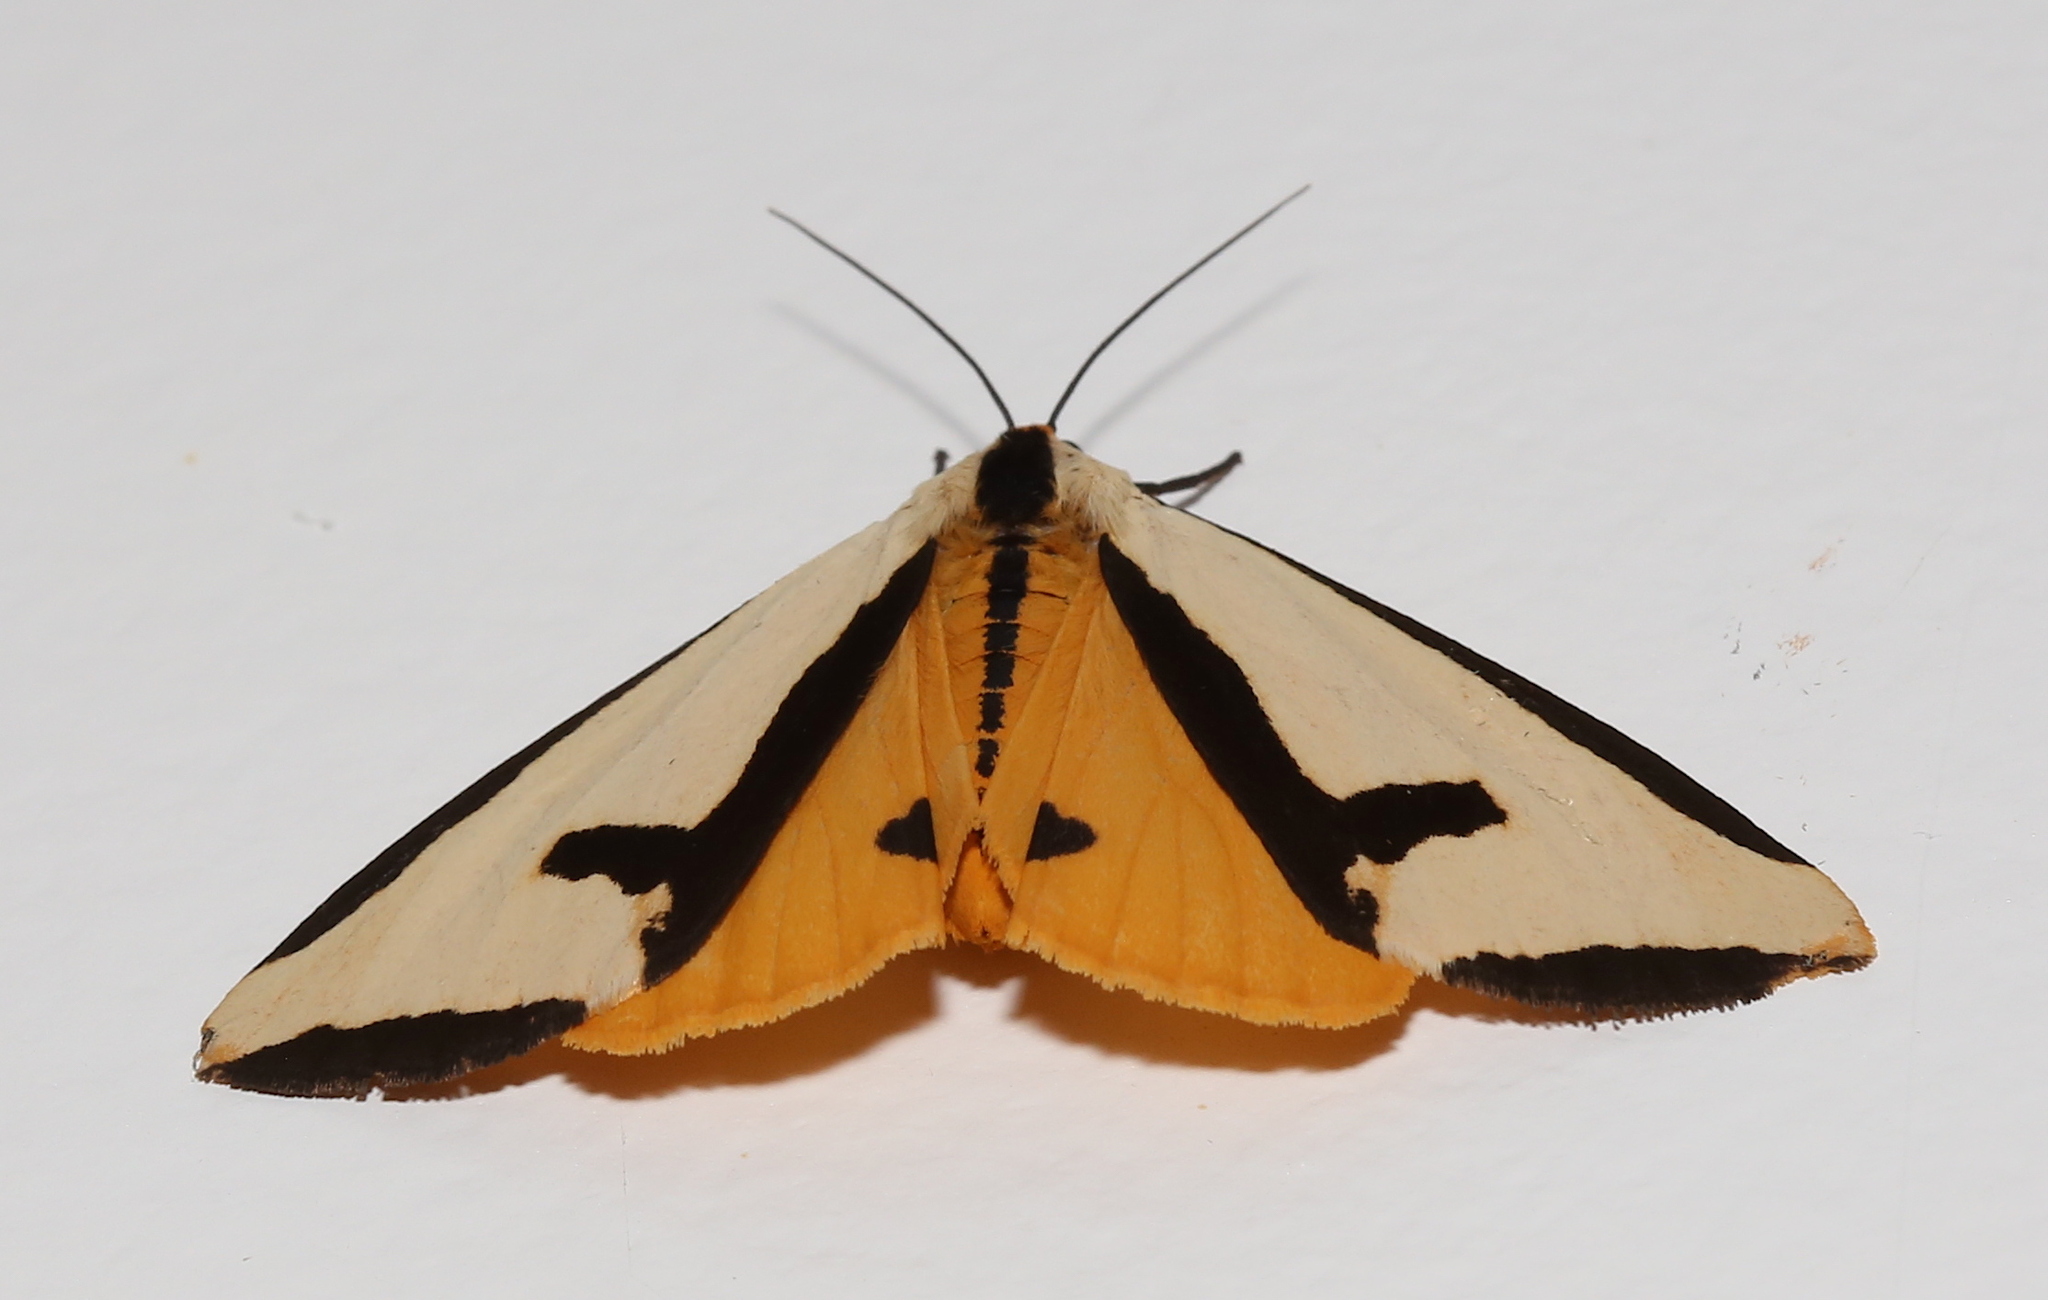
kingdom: Animalia
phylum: Arthropoda
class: Insecta
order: Lepidoptera
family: Erebidae
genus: Haploa
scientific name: Haploa clymene
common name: Clymene moth
